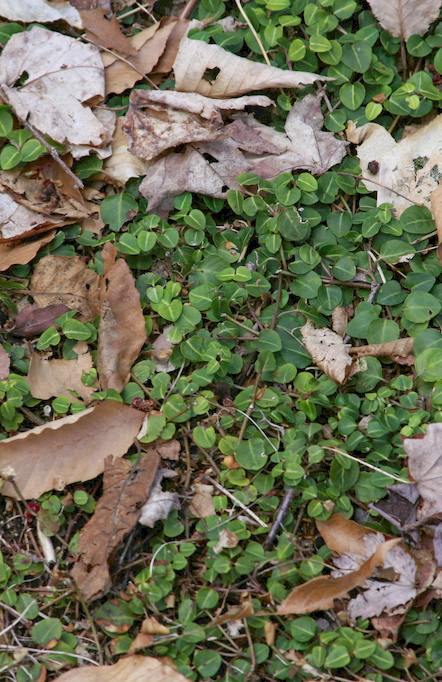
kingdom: Plantae
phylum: Tracheophyta
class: Magnoliopsida
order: Gentianales
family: Rubiaceae
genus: Mitchella
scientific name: Mitchella repens
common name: Partridge-berry
